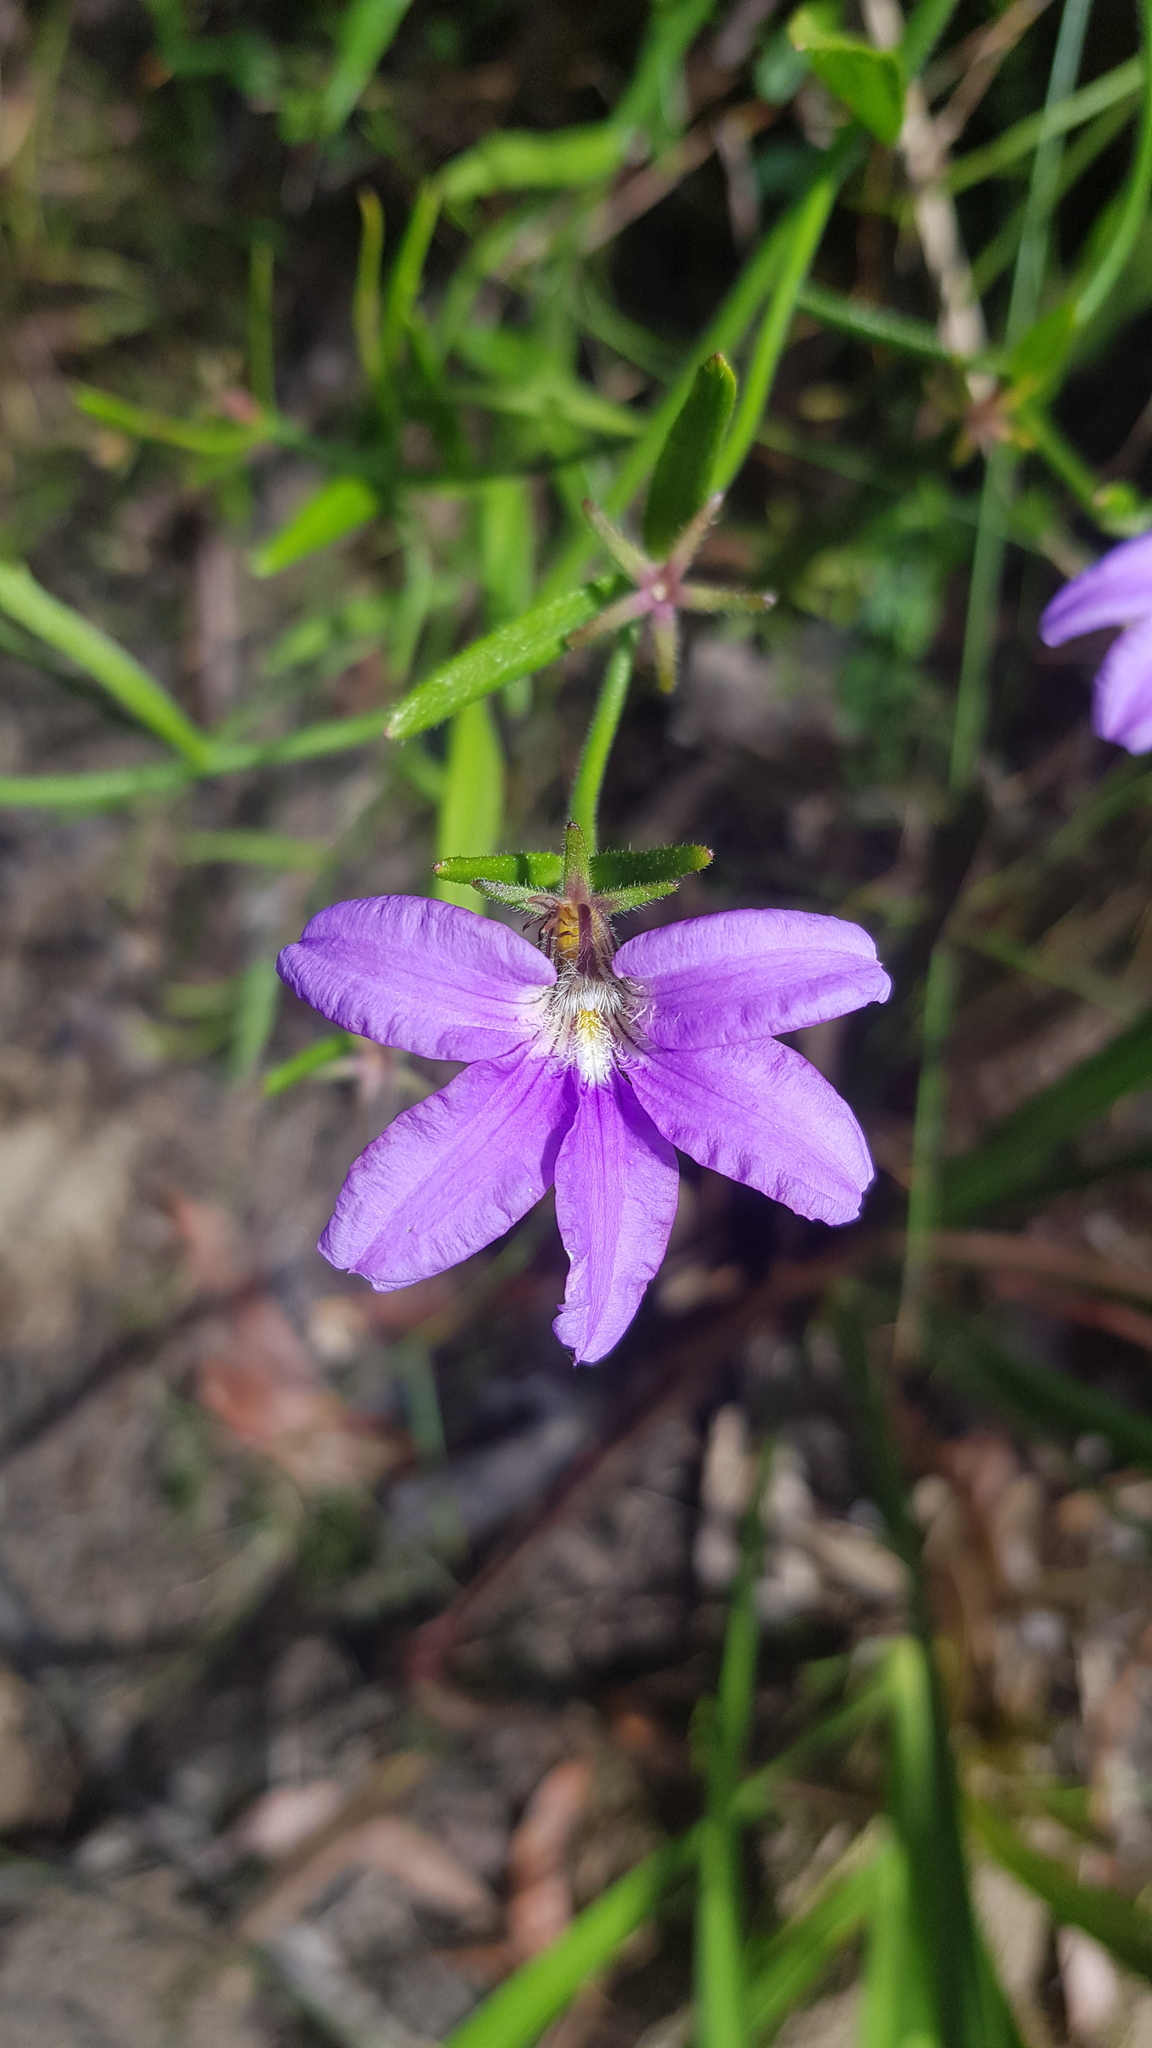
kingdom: Plantae
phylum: Tracheophyta
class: Magnoliopsida
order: Asterales
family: Goodeniaceae
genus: Scaevola
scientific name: Scaevola ramosissima
